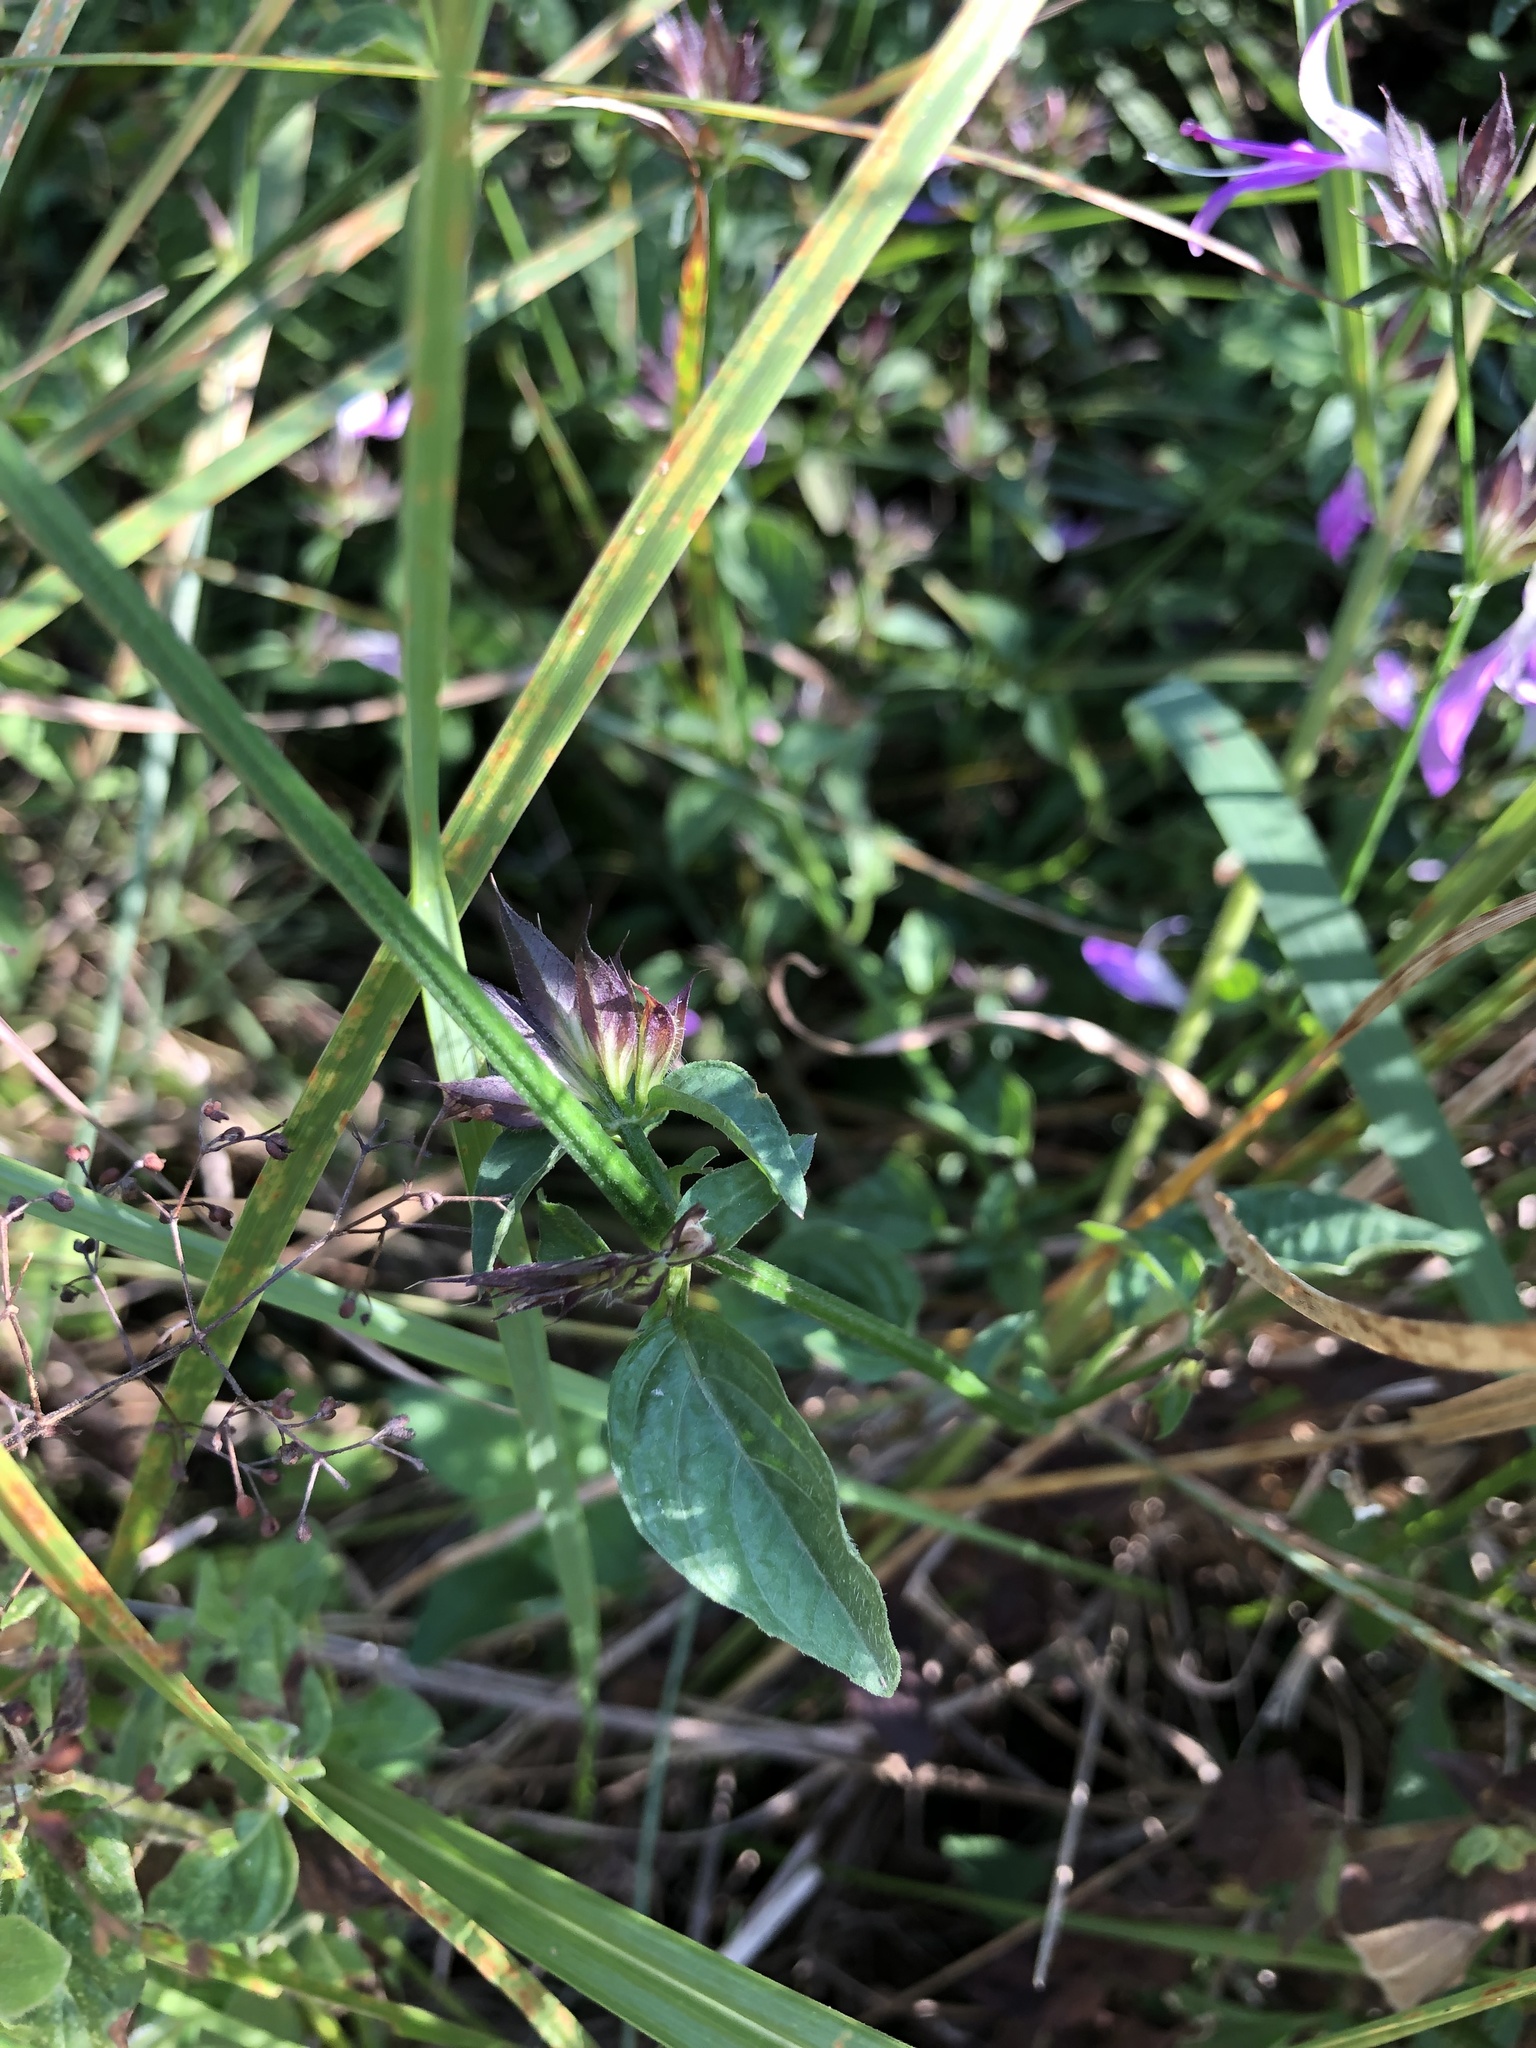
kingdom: Plantae
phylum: Tracheophyta
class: Magnoliopsida
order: Lamiales
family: Acanthaceae
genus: Dicliptera
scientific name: Dicliptera cernua
